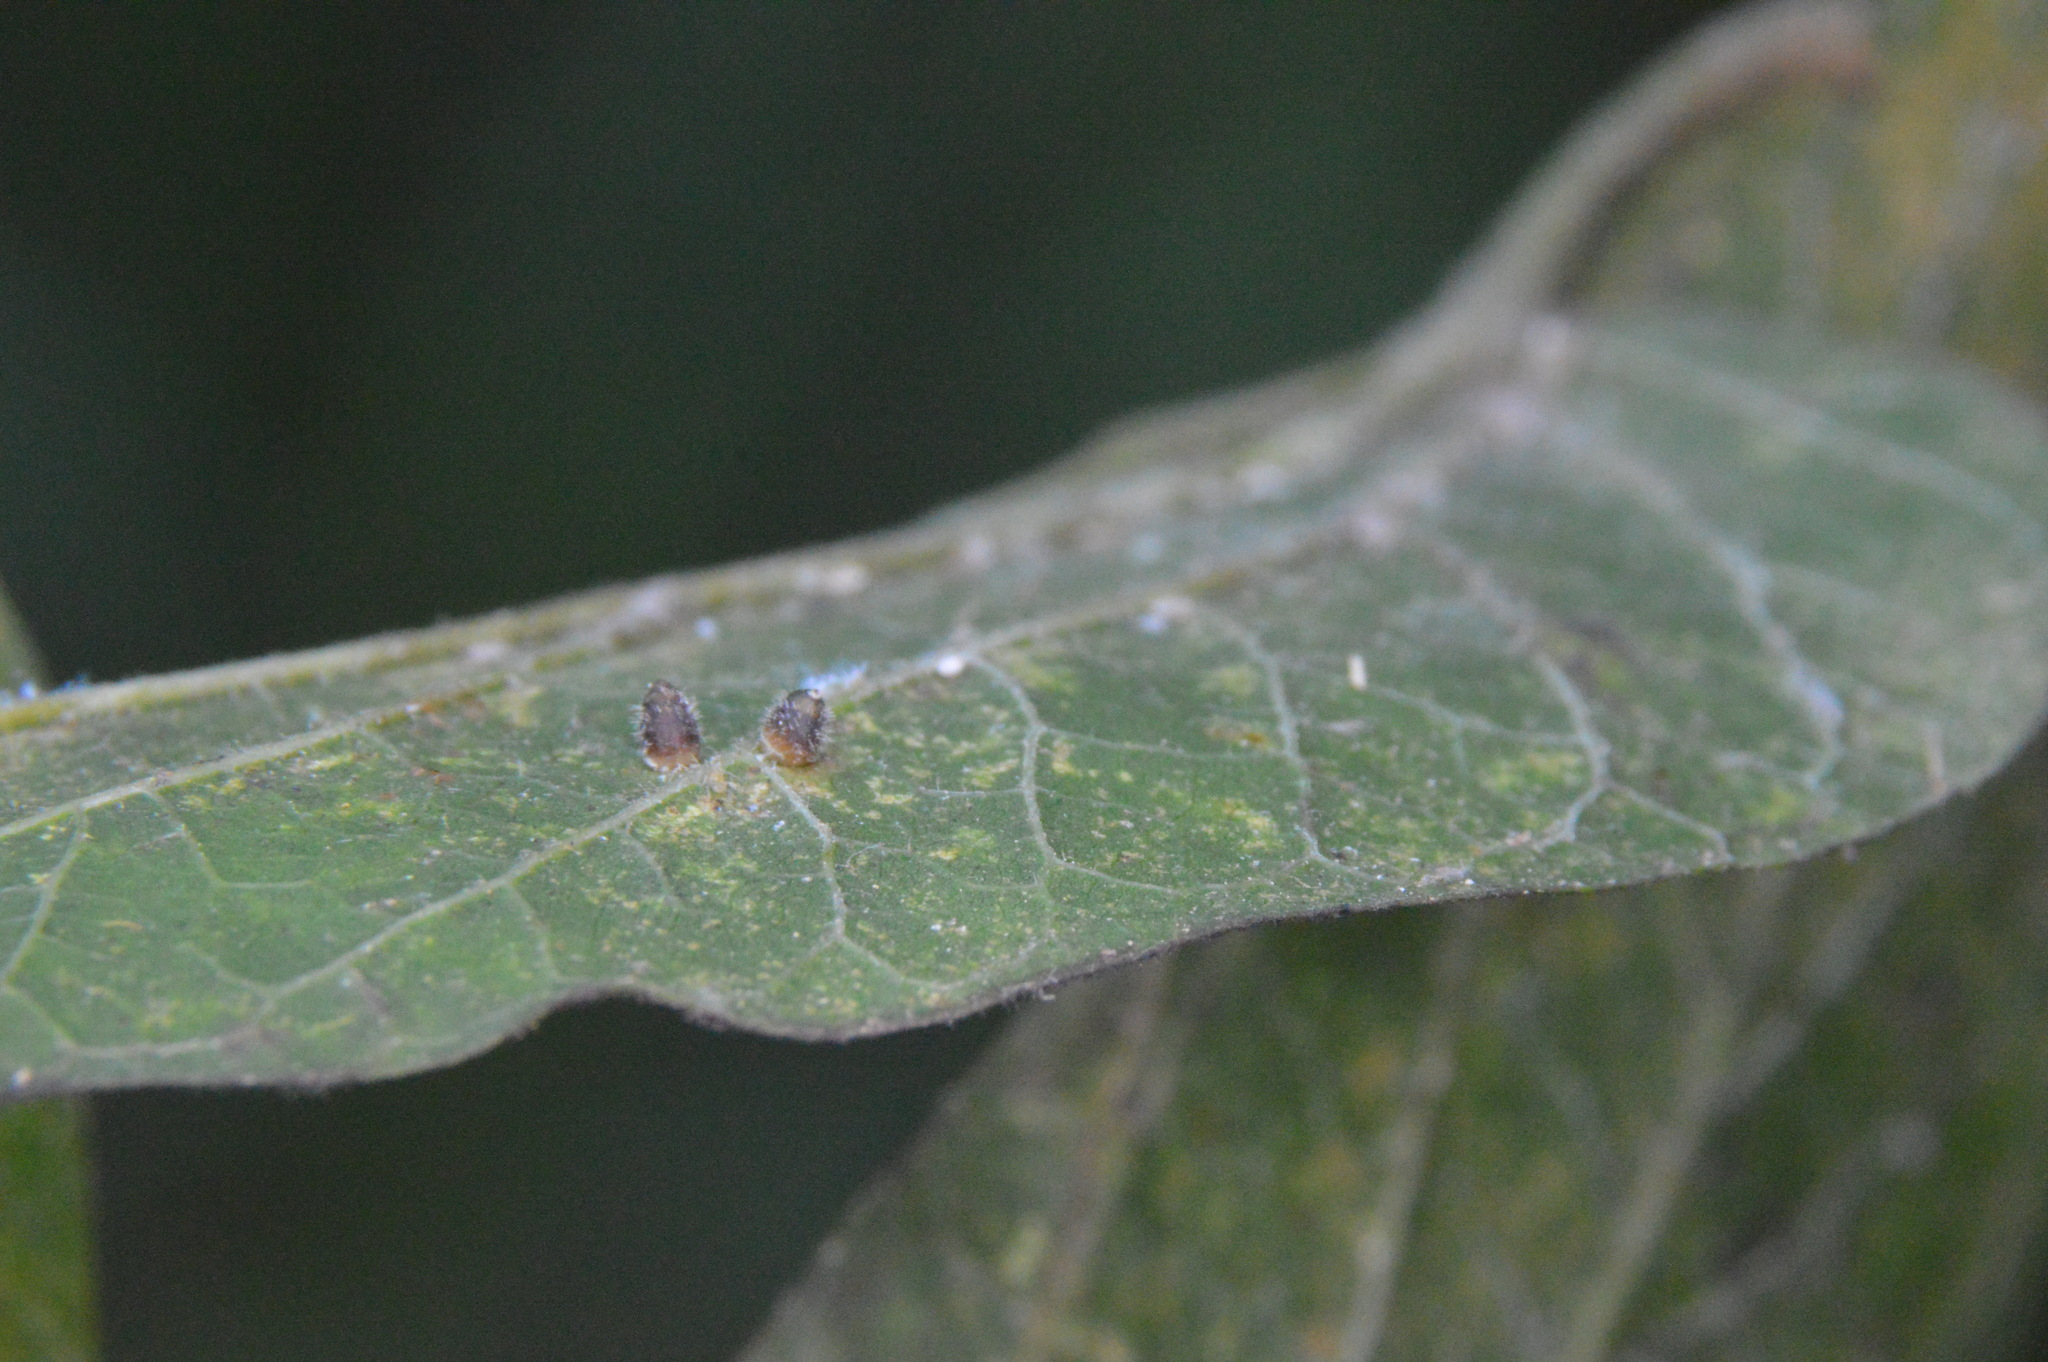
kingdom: Animalia
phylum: Arthropoda
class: Insecta
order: Diptera
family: Cecidomyiidae
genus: Celticecis
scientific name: Celticecis cupiformis
